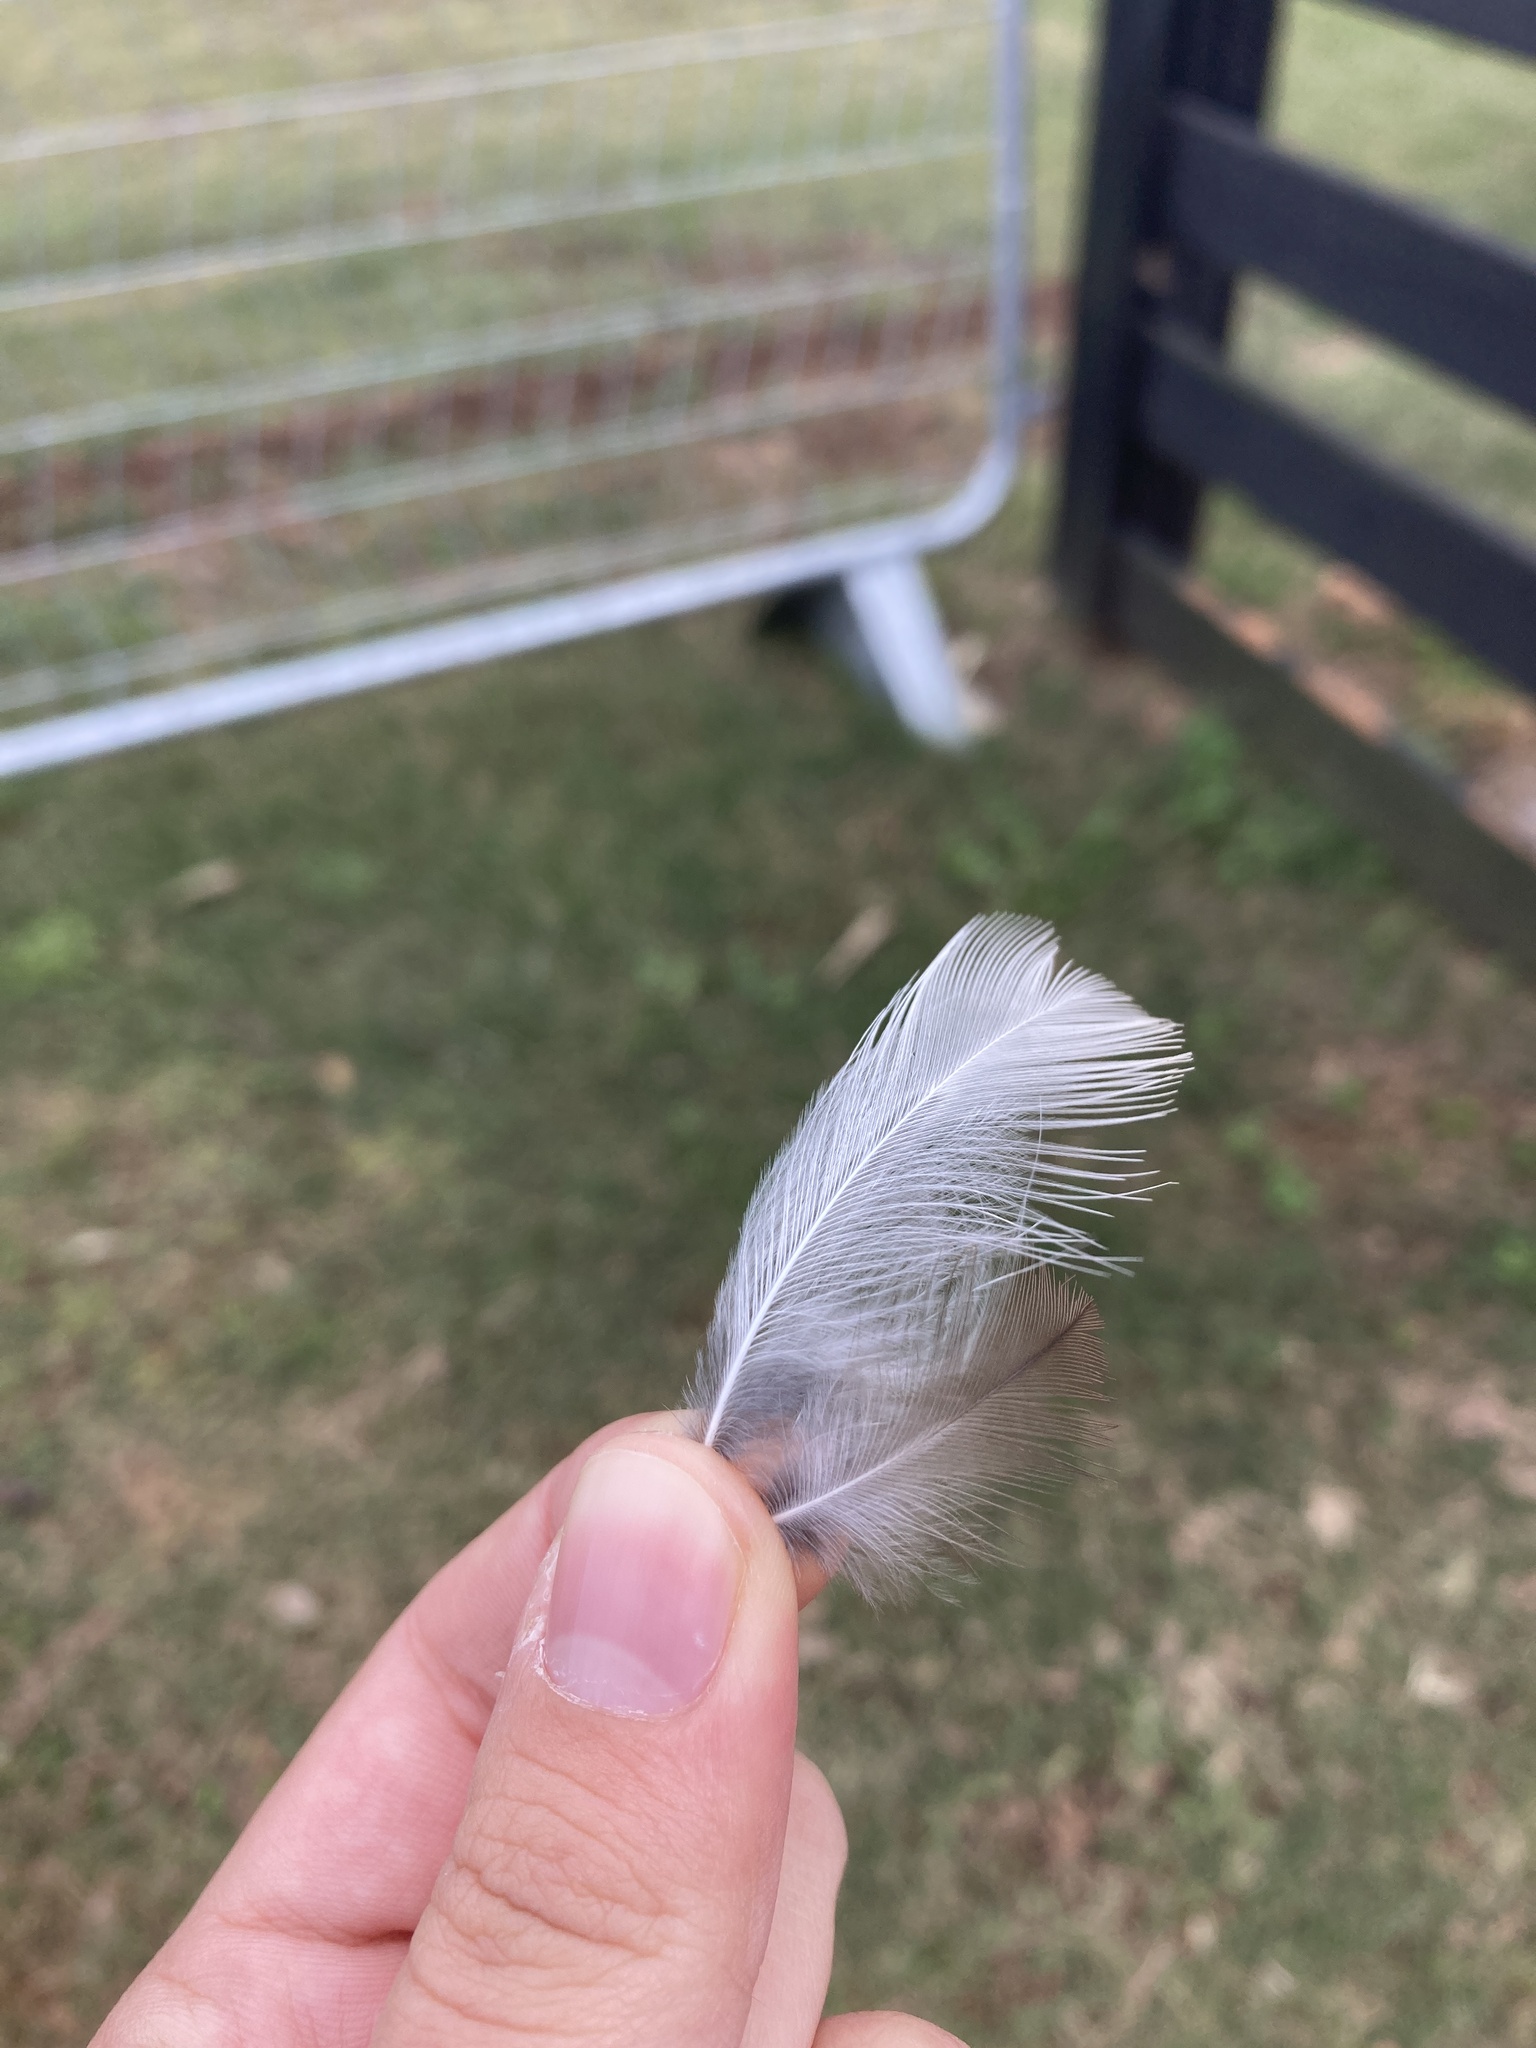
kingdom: Animalia
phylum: Chordata
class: Aves
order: Charadriiformes
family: Charadriidae
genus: Charadrius
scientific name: Charadrius vociferus
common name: Killdeer
